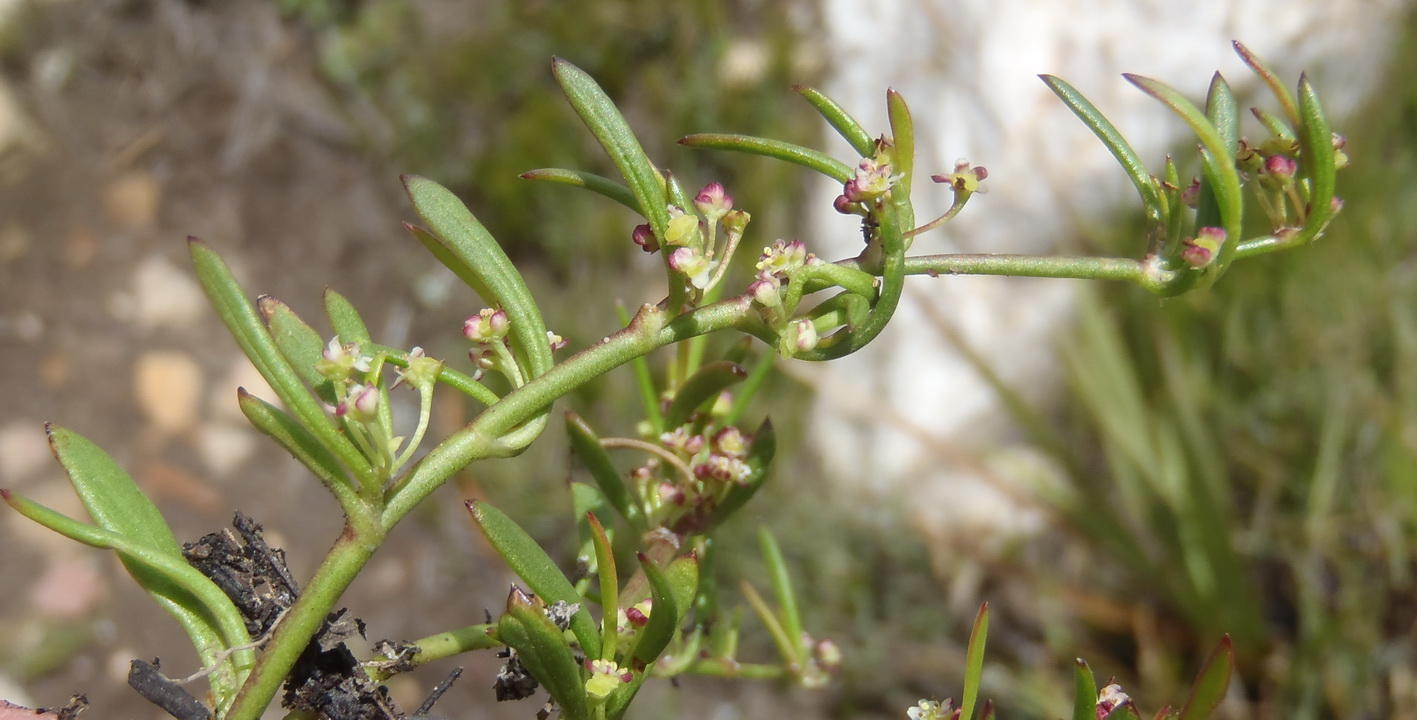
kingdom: Plantae
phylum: Tracheophyta
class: Magnoliopsida
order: Apiales
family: Apiaceae
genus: Centella
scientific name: Centella sessilis
